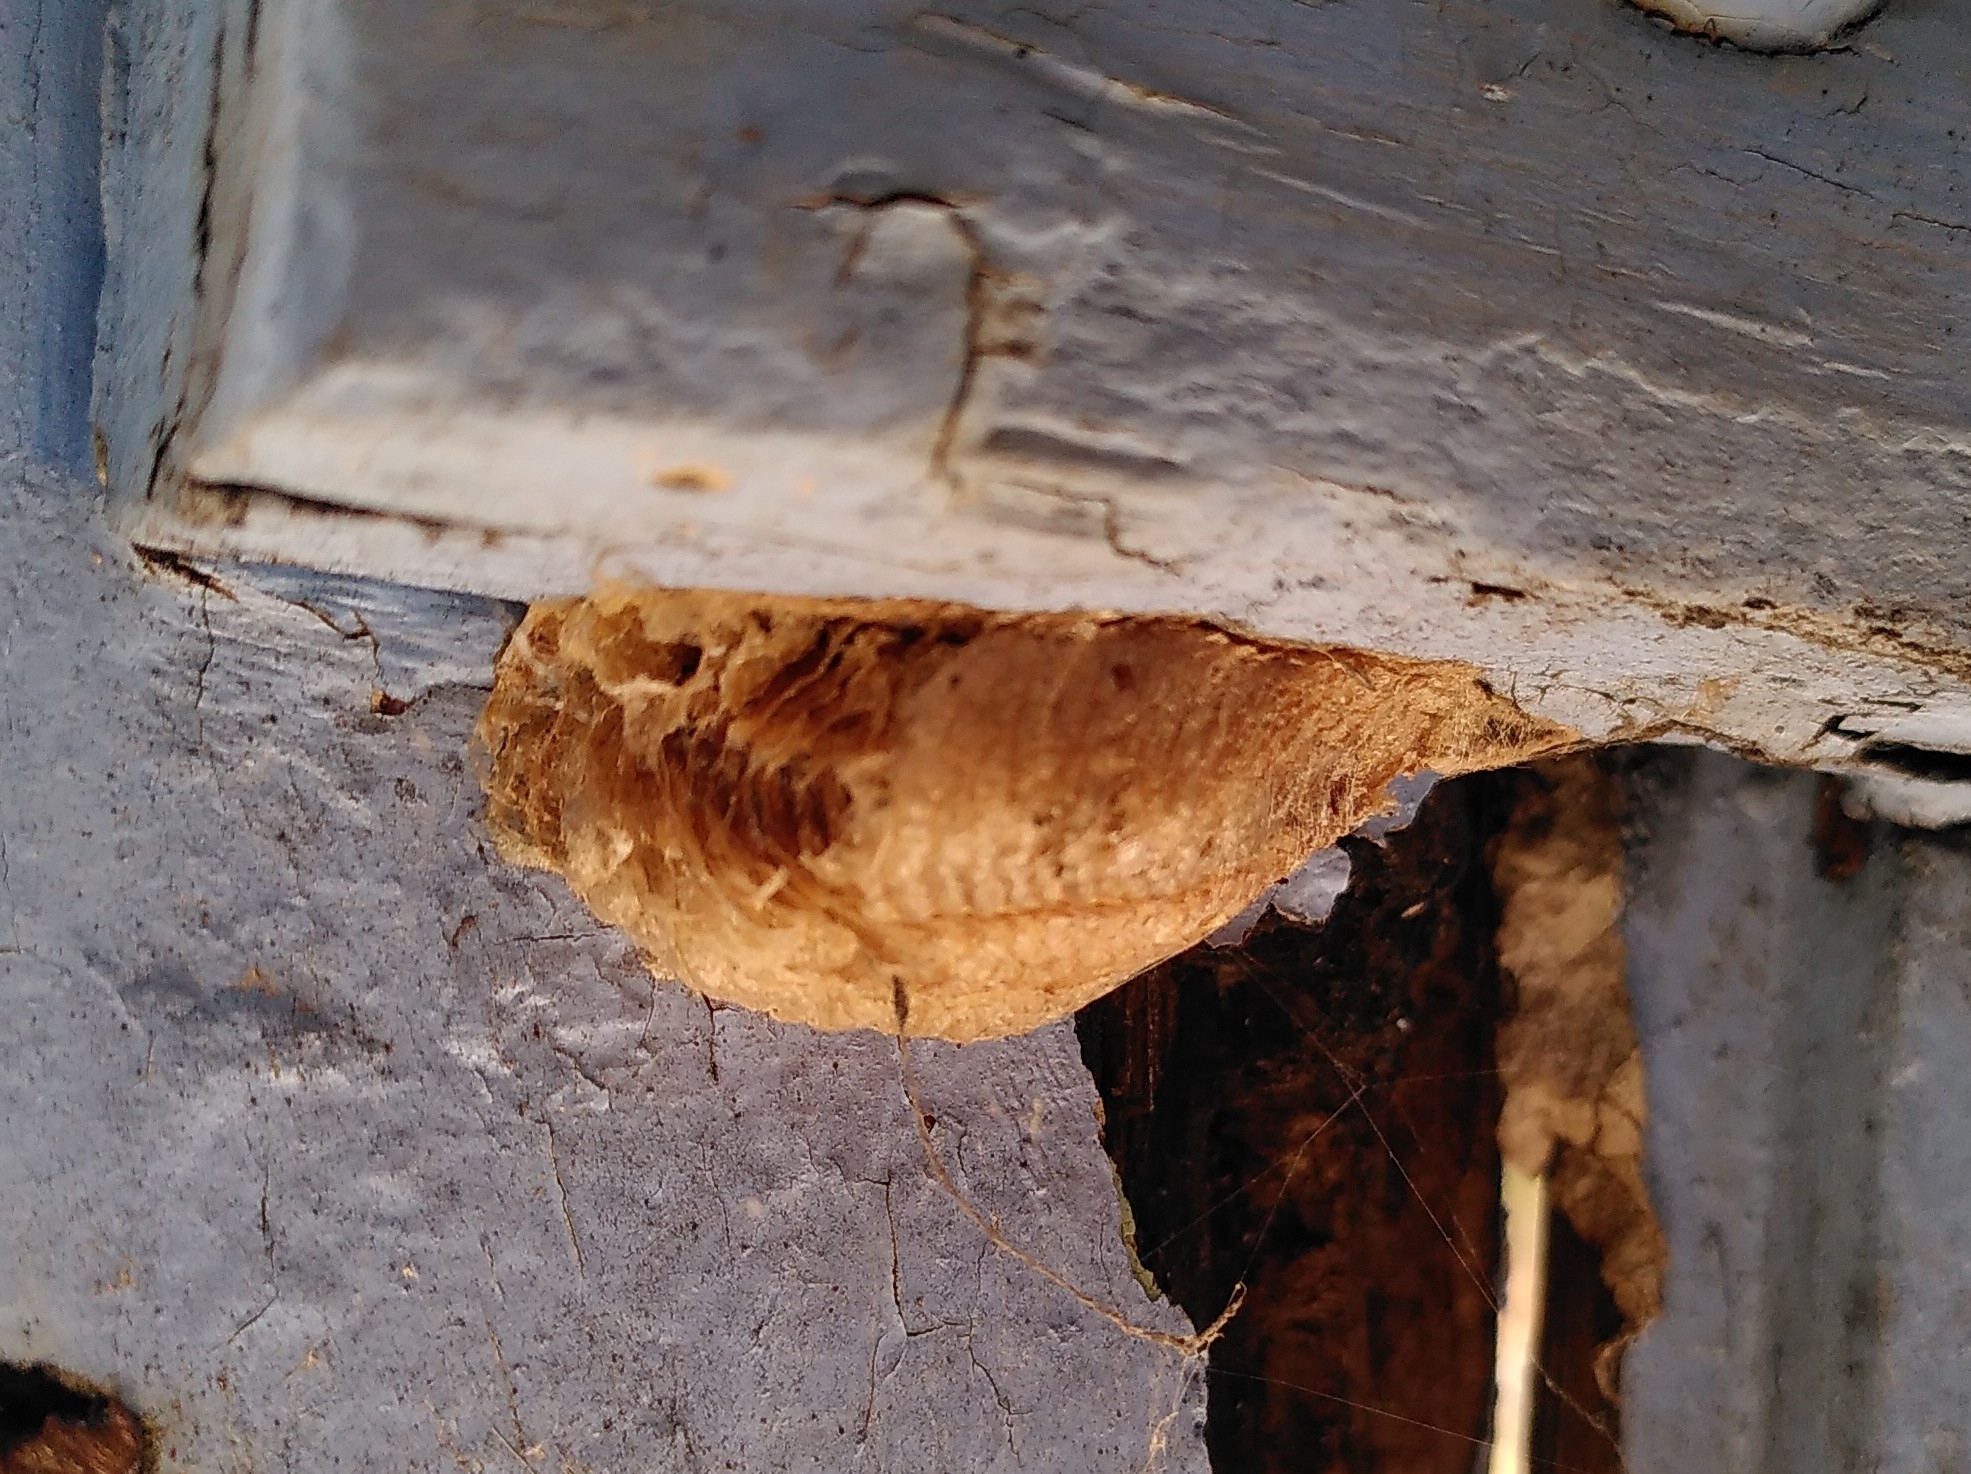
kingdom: Animalia
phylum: Arthropoda
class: Insecta
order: Mantodea
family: Mantidae
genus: Mantis
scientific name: Mantis religiosa
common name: Praying mantis
